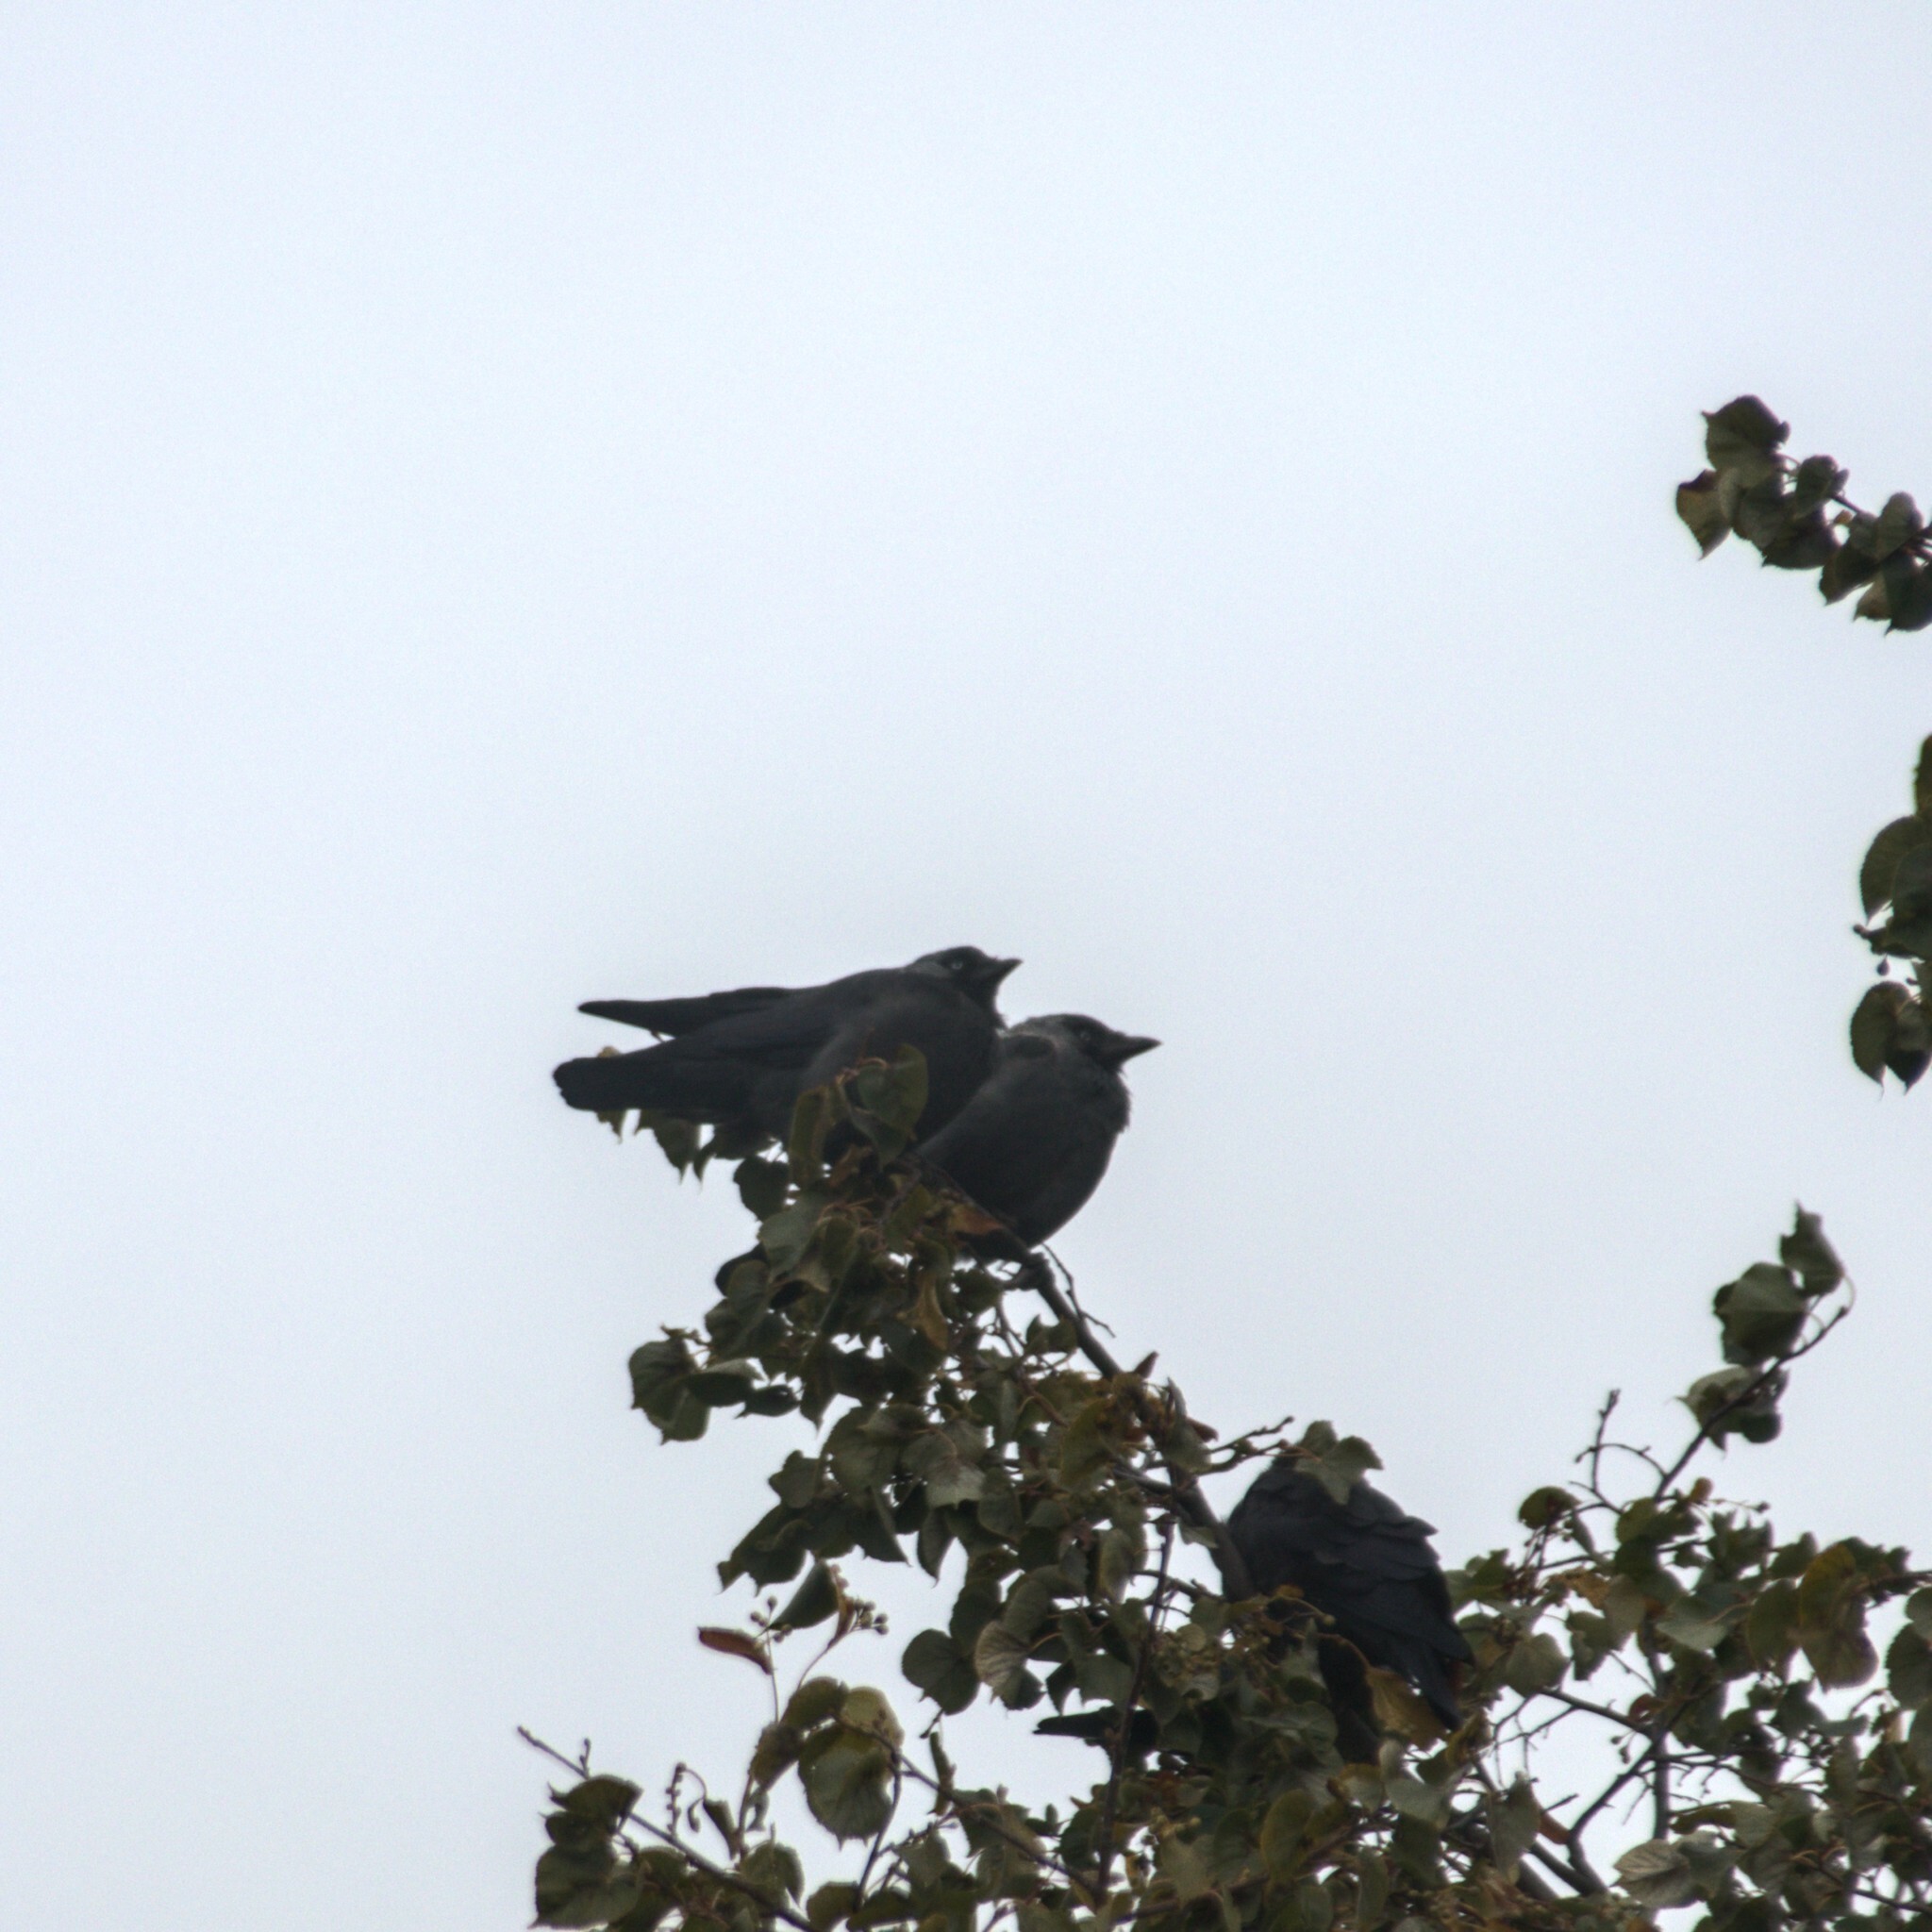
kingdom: Animalia
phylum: Chordata
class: Aves
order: Passeriformes
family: Corvidae
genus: Coloeus
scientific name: Coloeus monedula
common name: Western jackdaw
